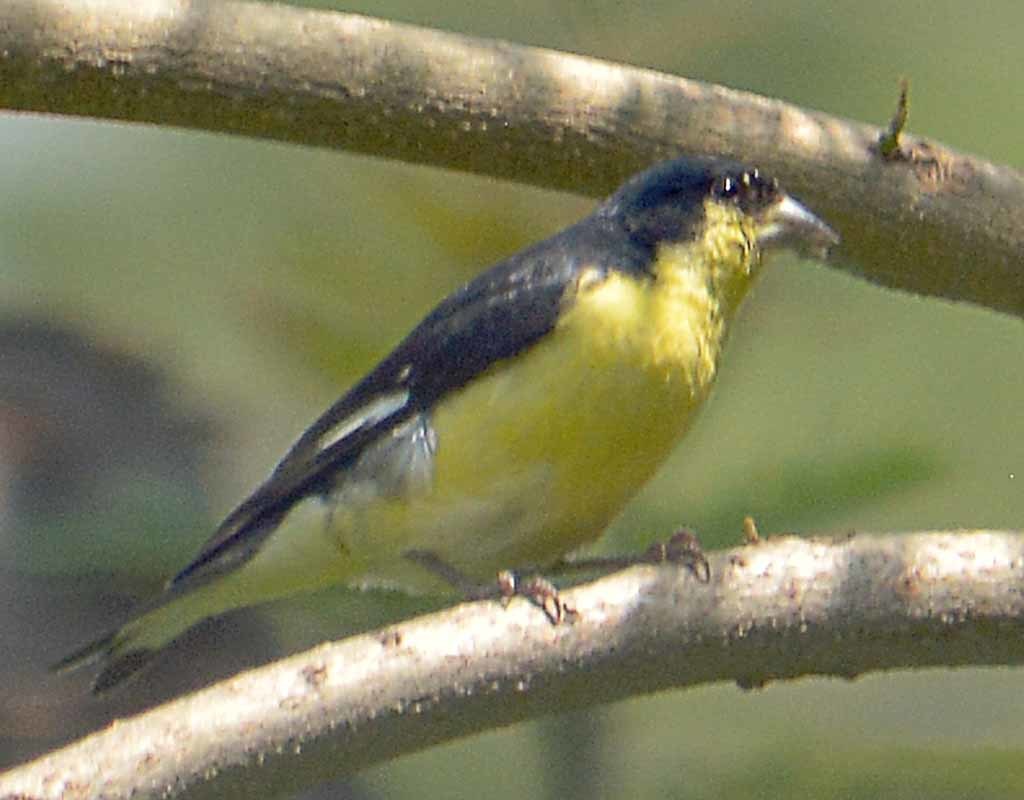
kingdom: Animalia
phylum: Chordata
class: Aves
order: Passeriformes
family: Fringillidae
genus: Spinus
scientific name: Spinus psaltria
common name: Lesser goldfinch
